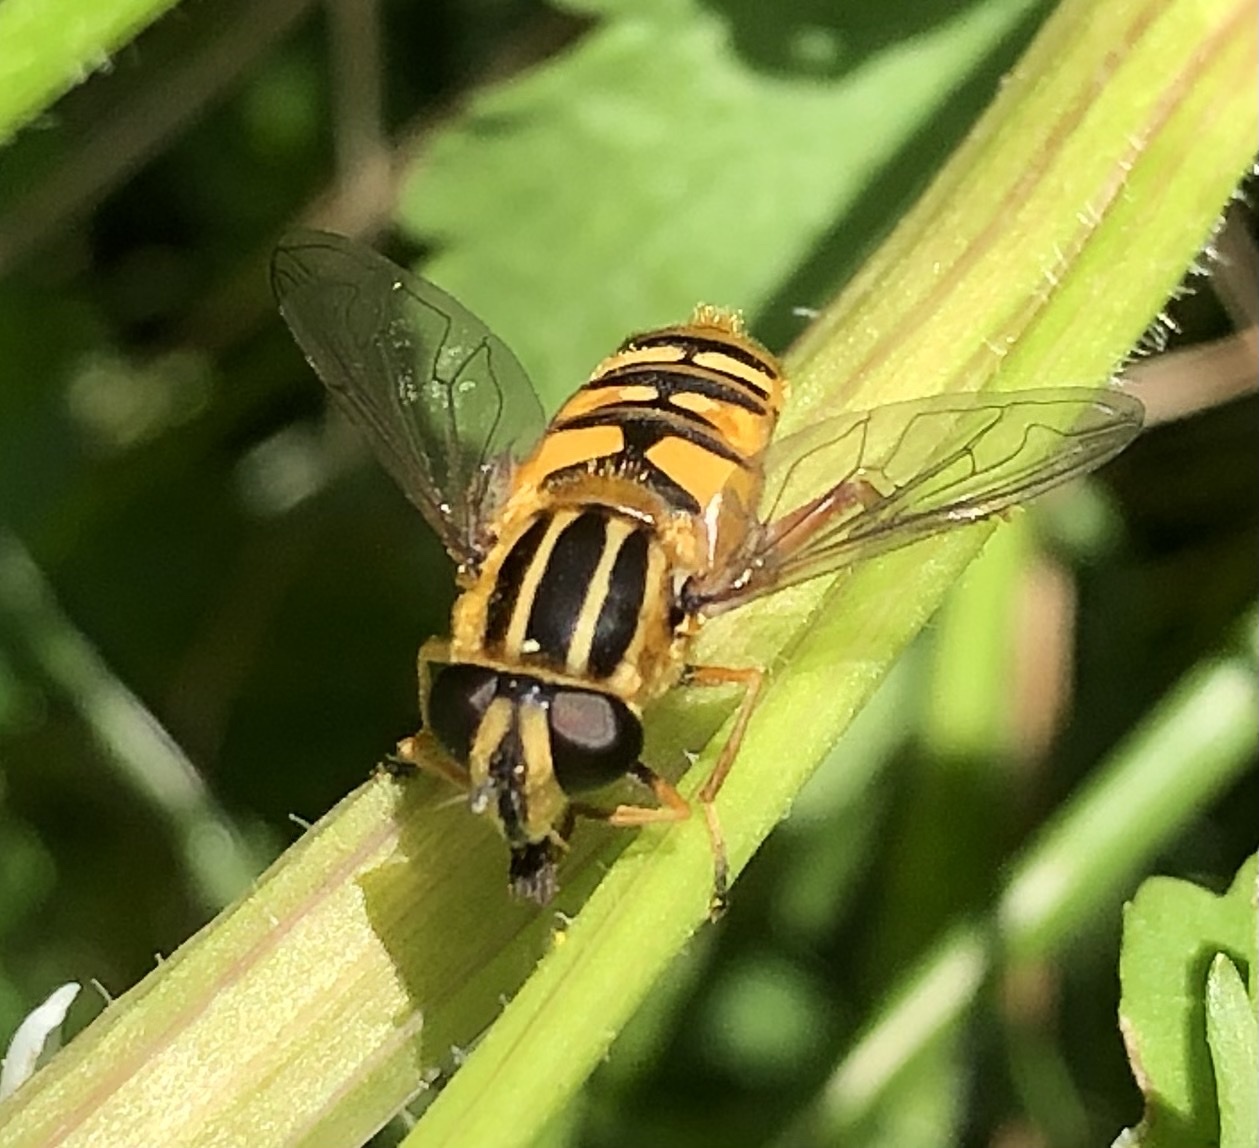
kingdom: Animalia
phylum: Arthropoda
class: Insecta
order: Diptera
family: Syrphidae
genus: Helophilus
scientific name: Helophilus pendulus
